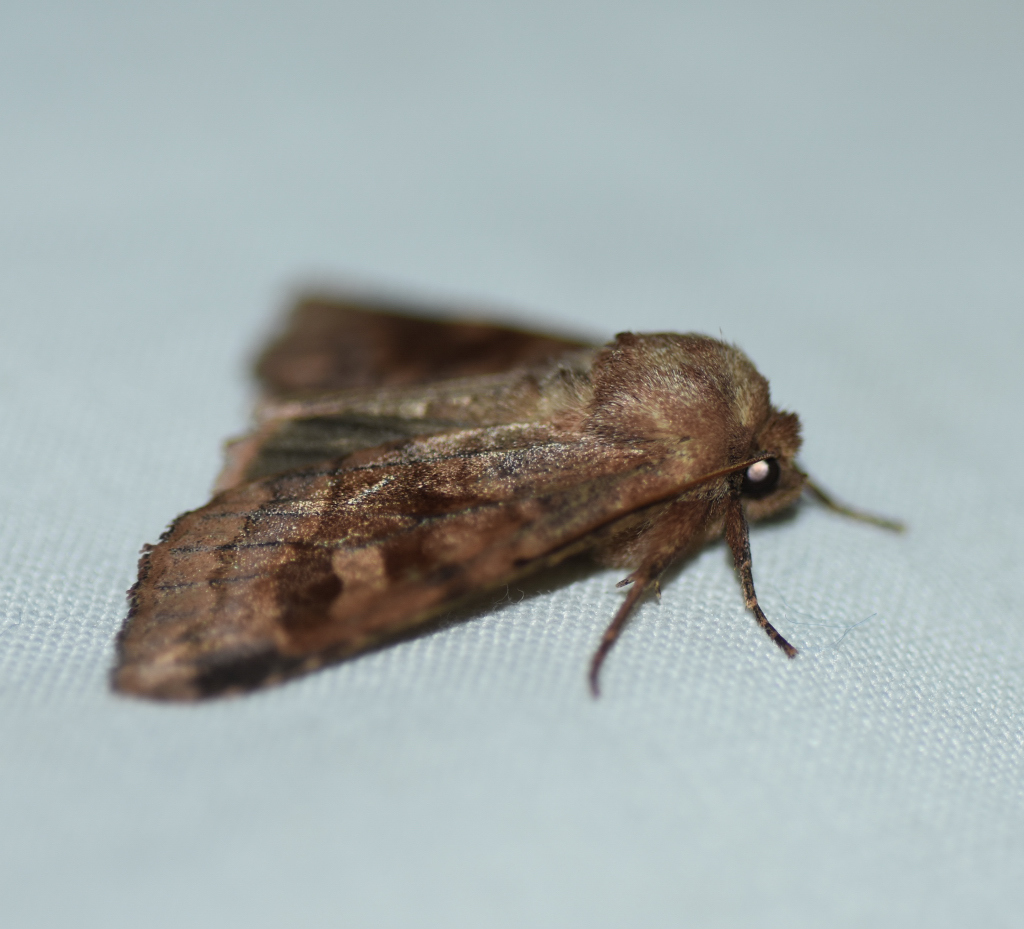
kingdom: Animalia
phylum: Arthropoda
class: Insecta
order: Lepidoptera
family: Noctuidae
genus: Nephelodes
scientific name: Nephelodes minians
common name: Bronzed cutworm
